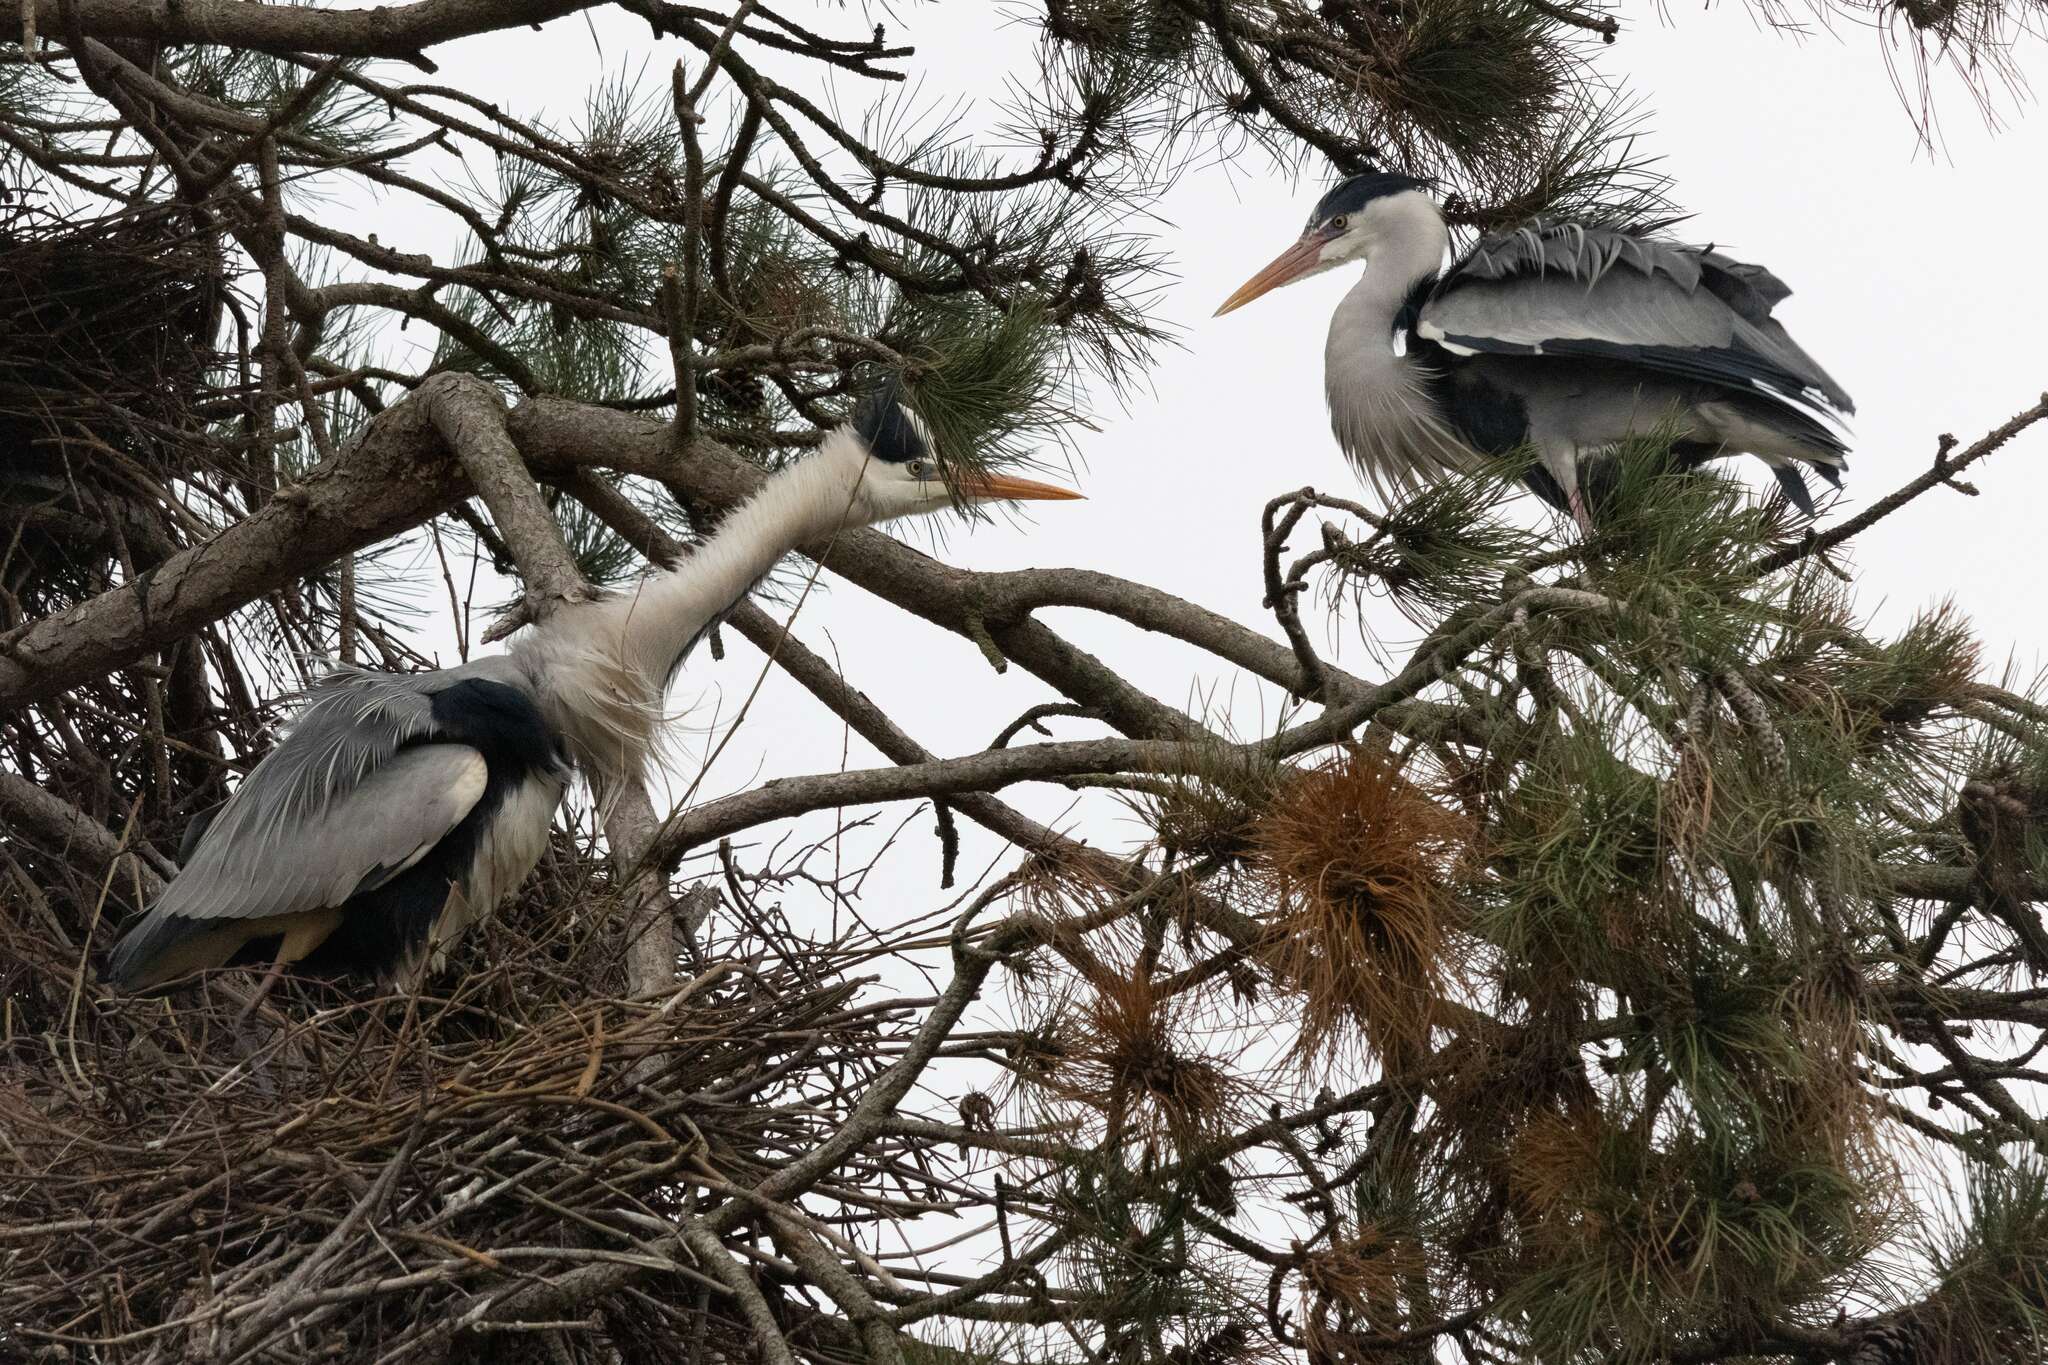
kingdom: Animalia
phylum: Chordata
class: Aves
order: Pelecaniformes
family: Ardeidae
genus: Ardea
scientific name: Ardea cinerea
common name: Grey heron
